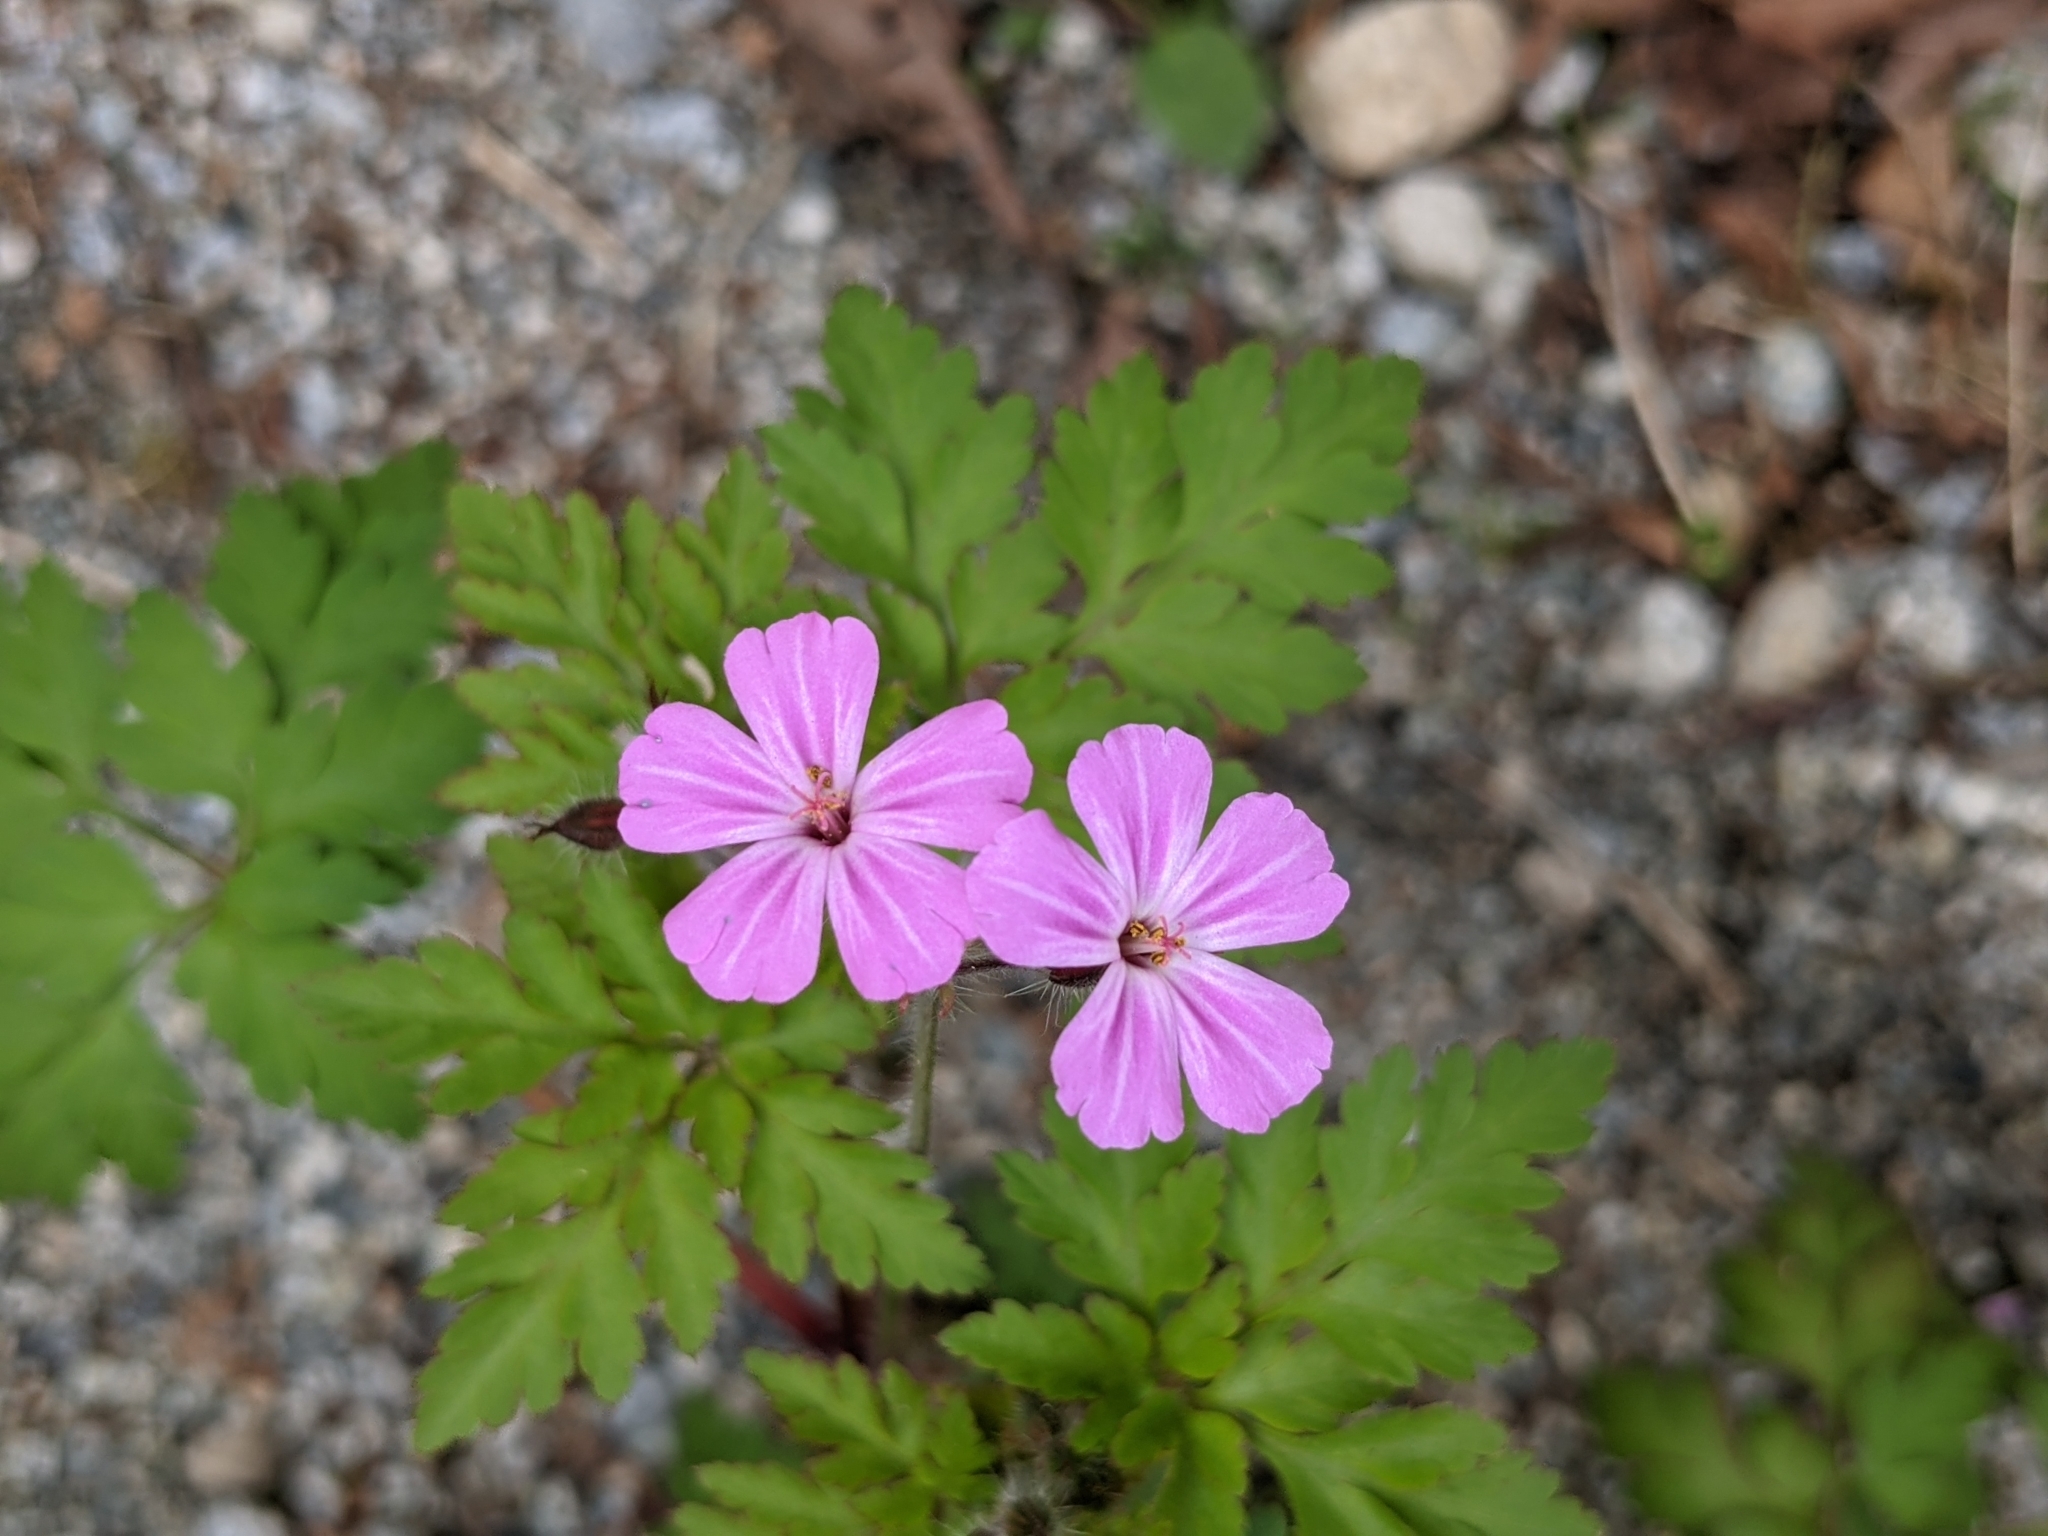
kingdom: Plantae
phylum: Tracheophyta
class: Magnoliopsida
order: Geraniales
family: Geraniaceae
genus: Geranium
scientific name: Geranium robertianum
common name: Herb-robert
